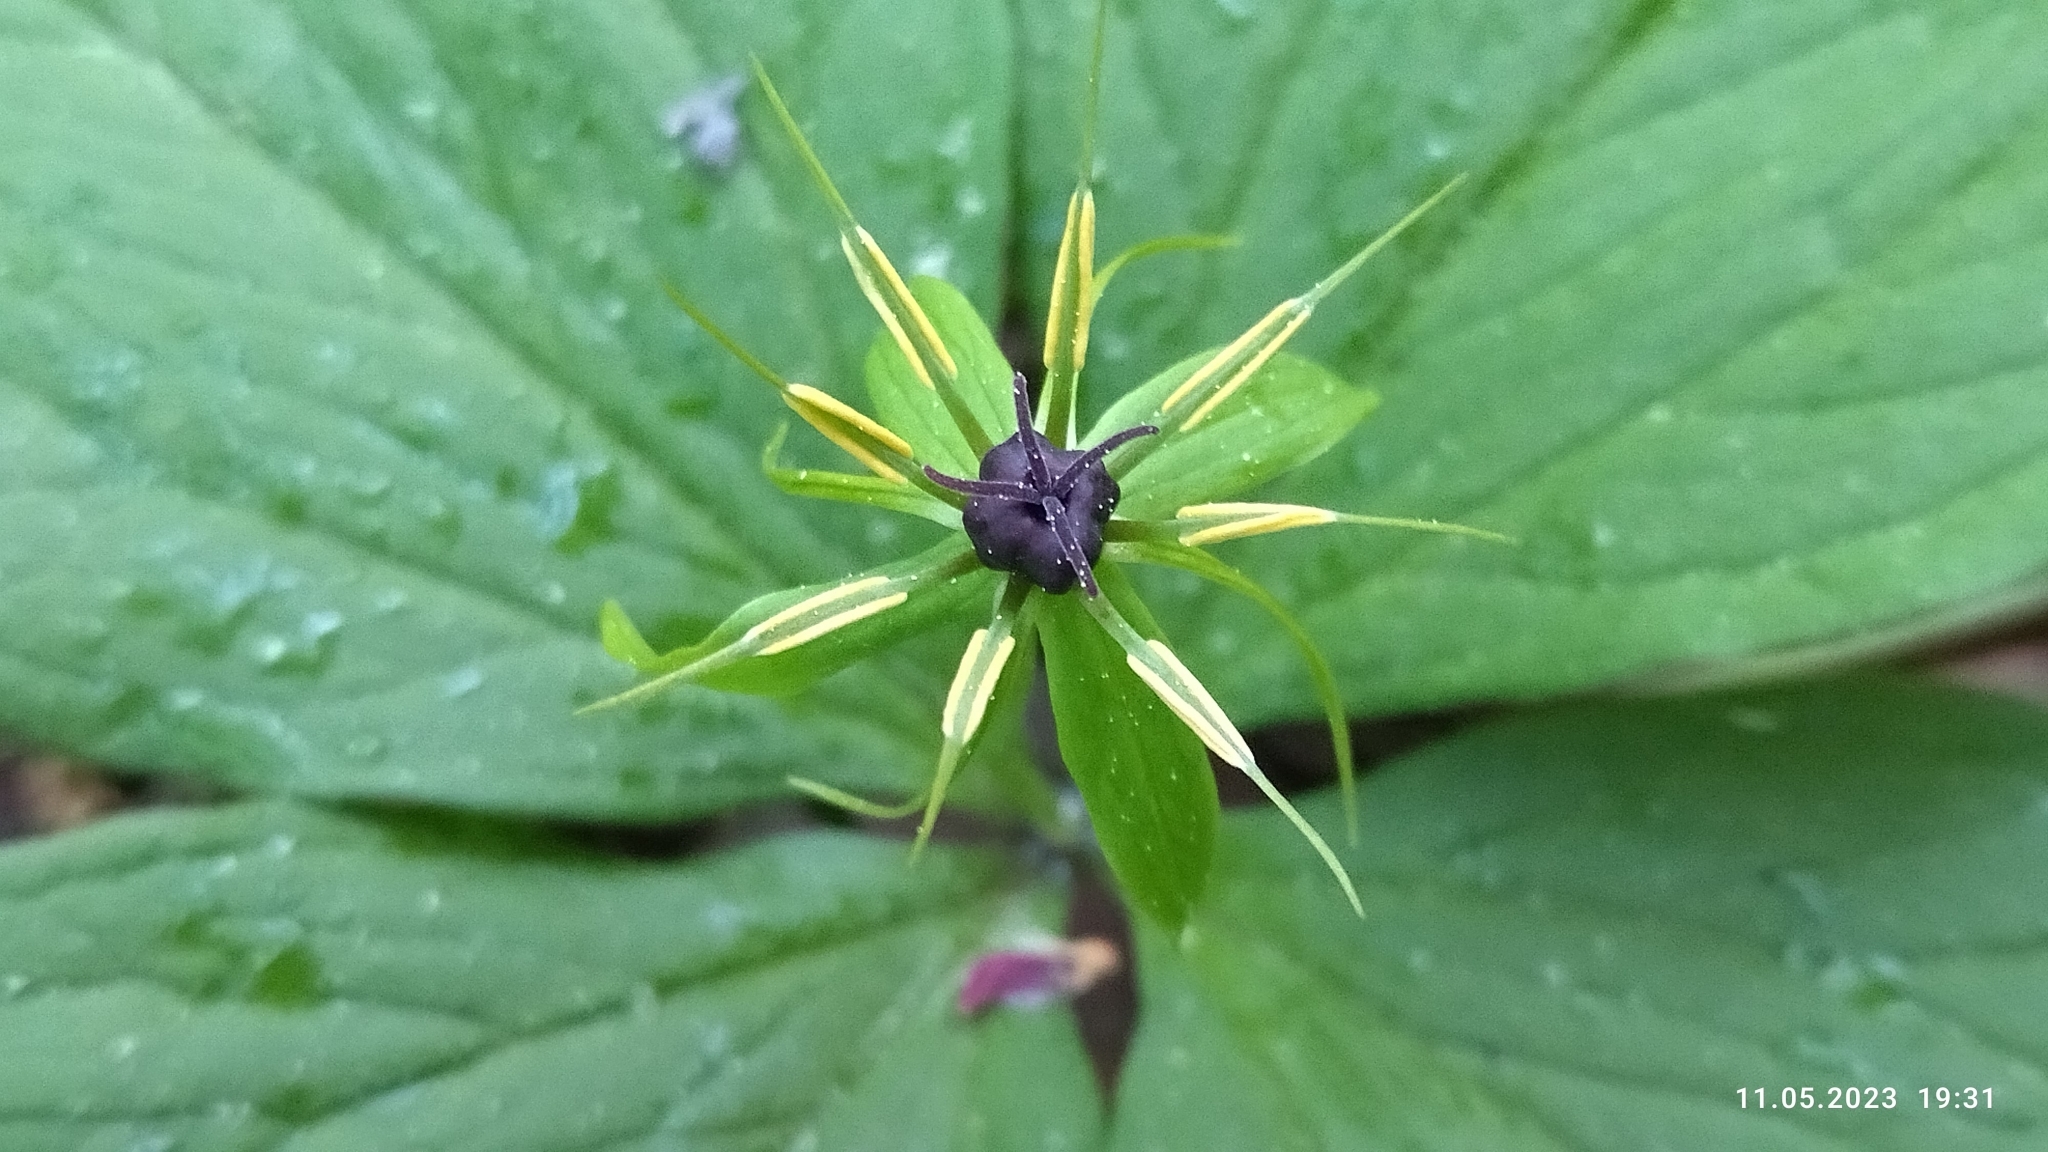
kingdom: Plantae
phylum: Tracheophyta
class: Liliopsida
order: Liliales
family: Melanthiaceae
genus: Paris
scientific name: Paris quadrifolia
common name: Herb-paris
